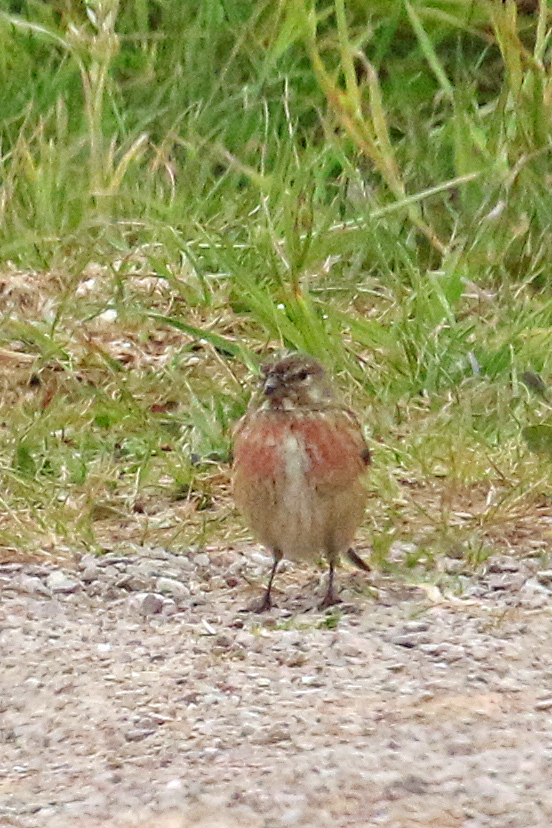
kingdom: Animalia
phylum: Chordata
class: Aves
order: Passeriformes
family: Fringillidae
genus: Linaria
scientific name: Linaria cannabina
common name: Common linnet
